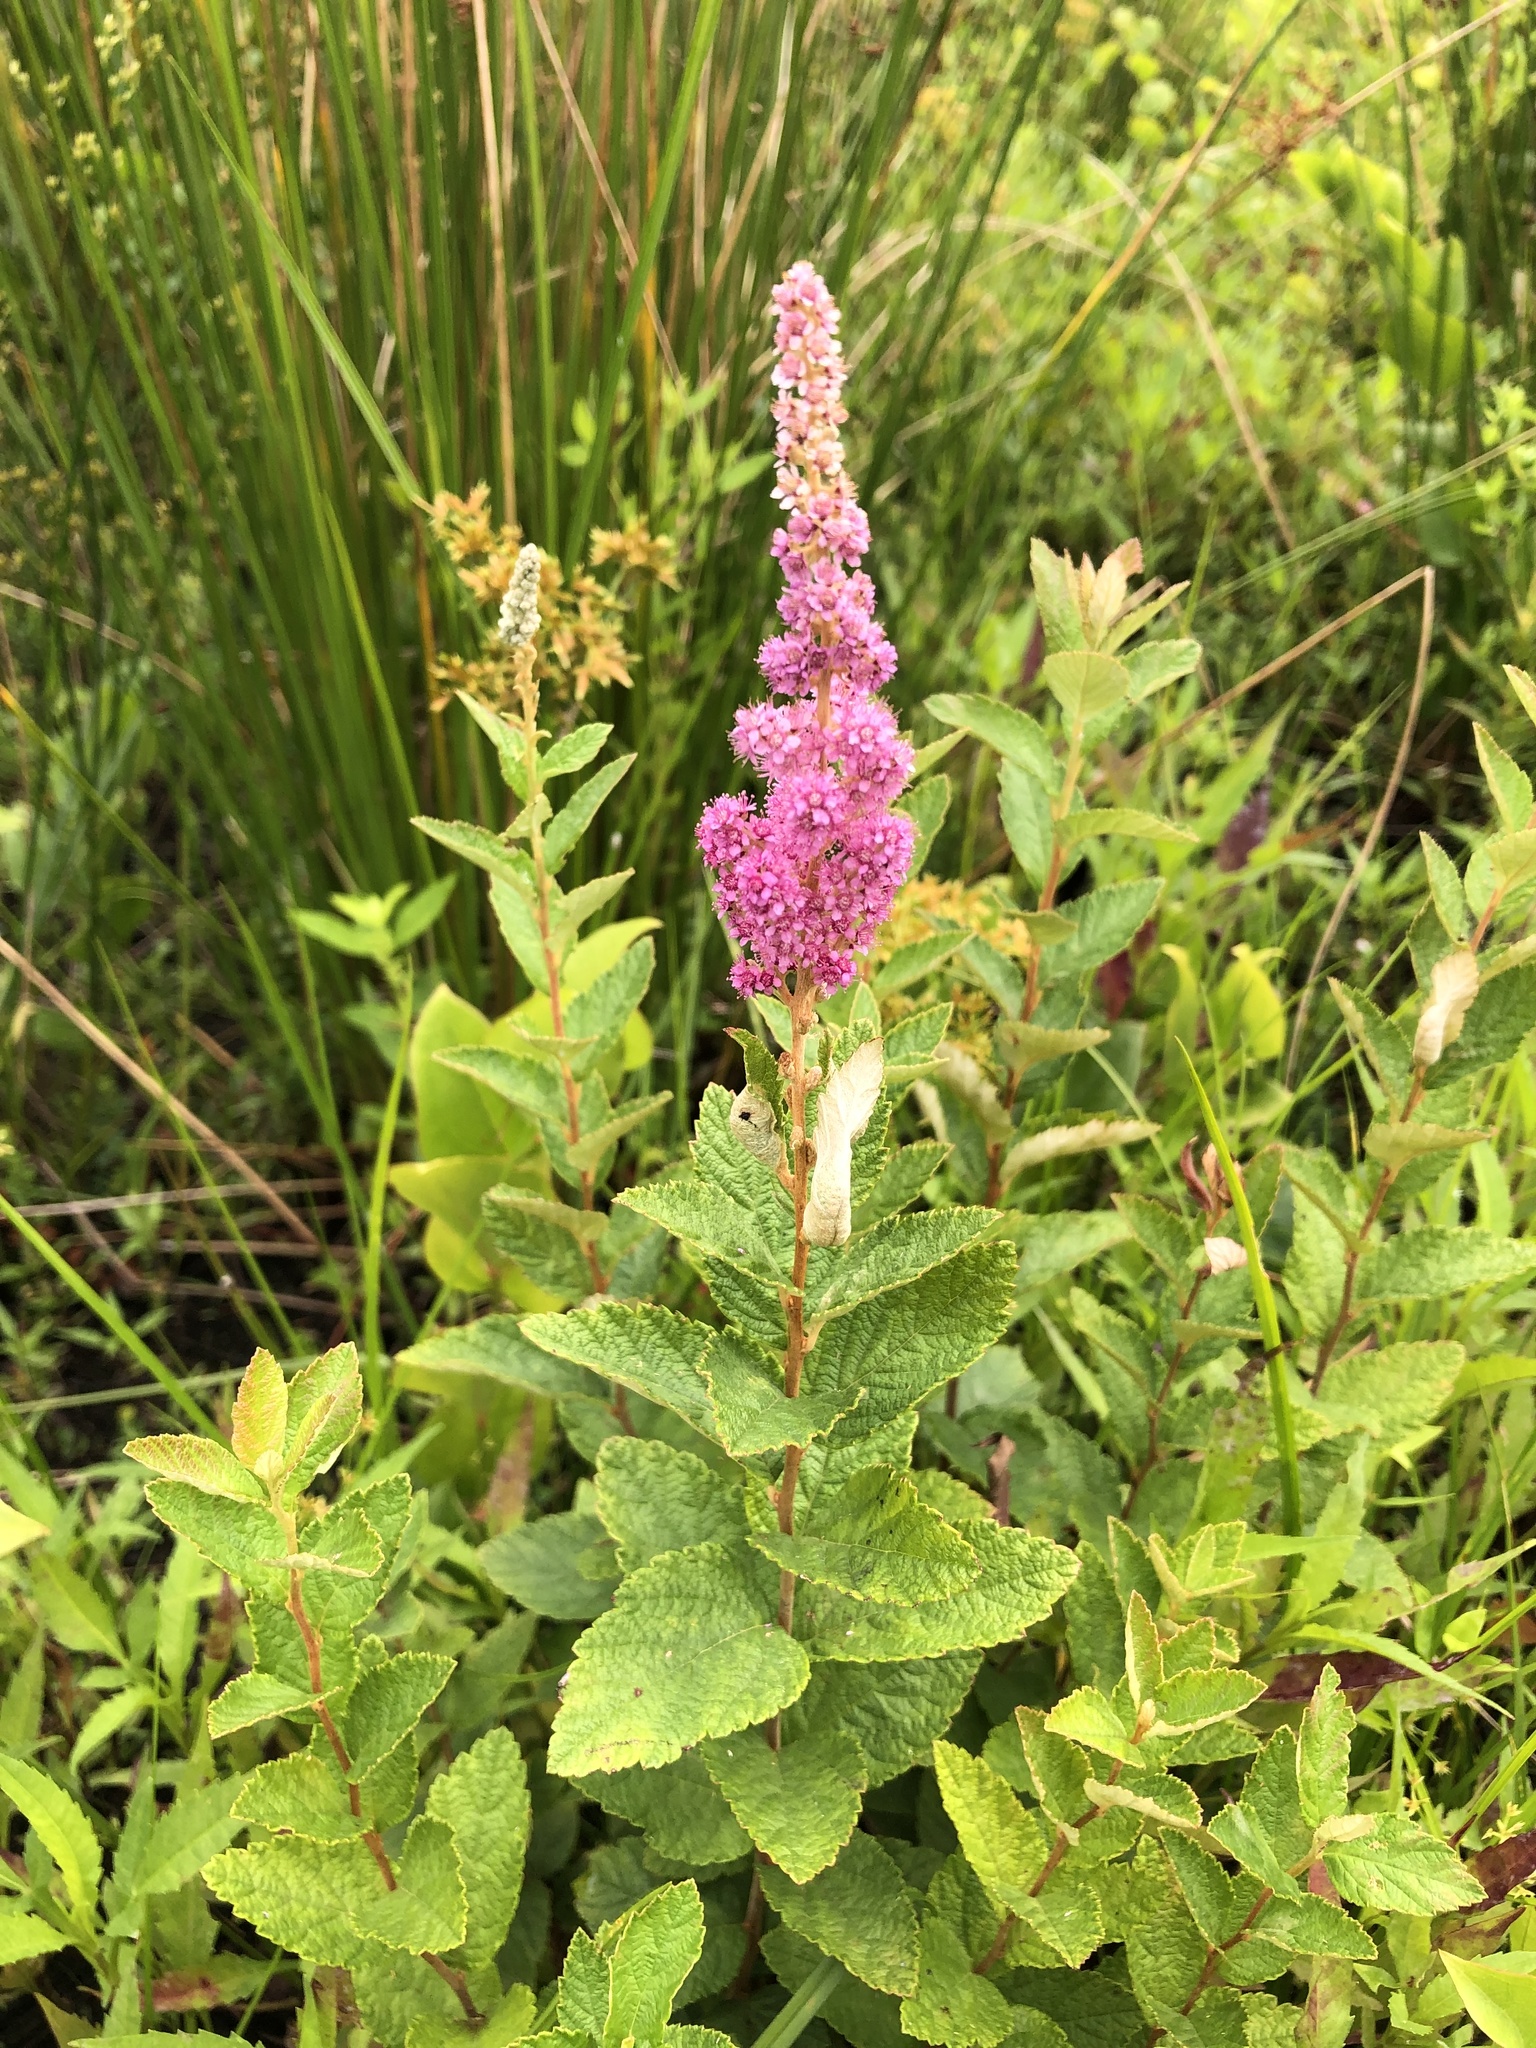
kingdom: Plantae
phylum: Tracheophyta
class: Magnoliopsida
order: Rosales
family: Rosaceae
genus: Spiraea
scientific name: Spiraea tomentosa
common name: Hardhack
